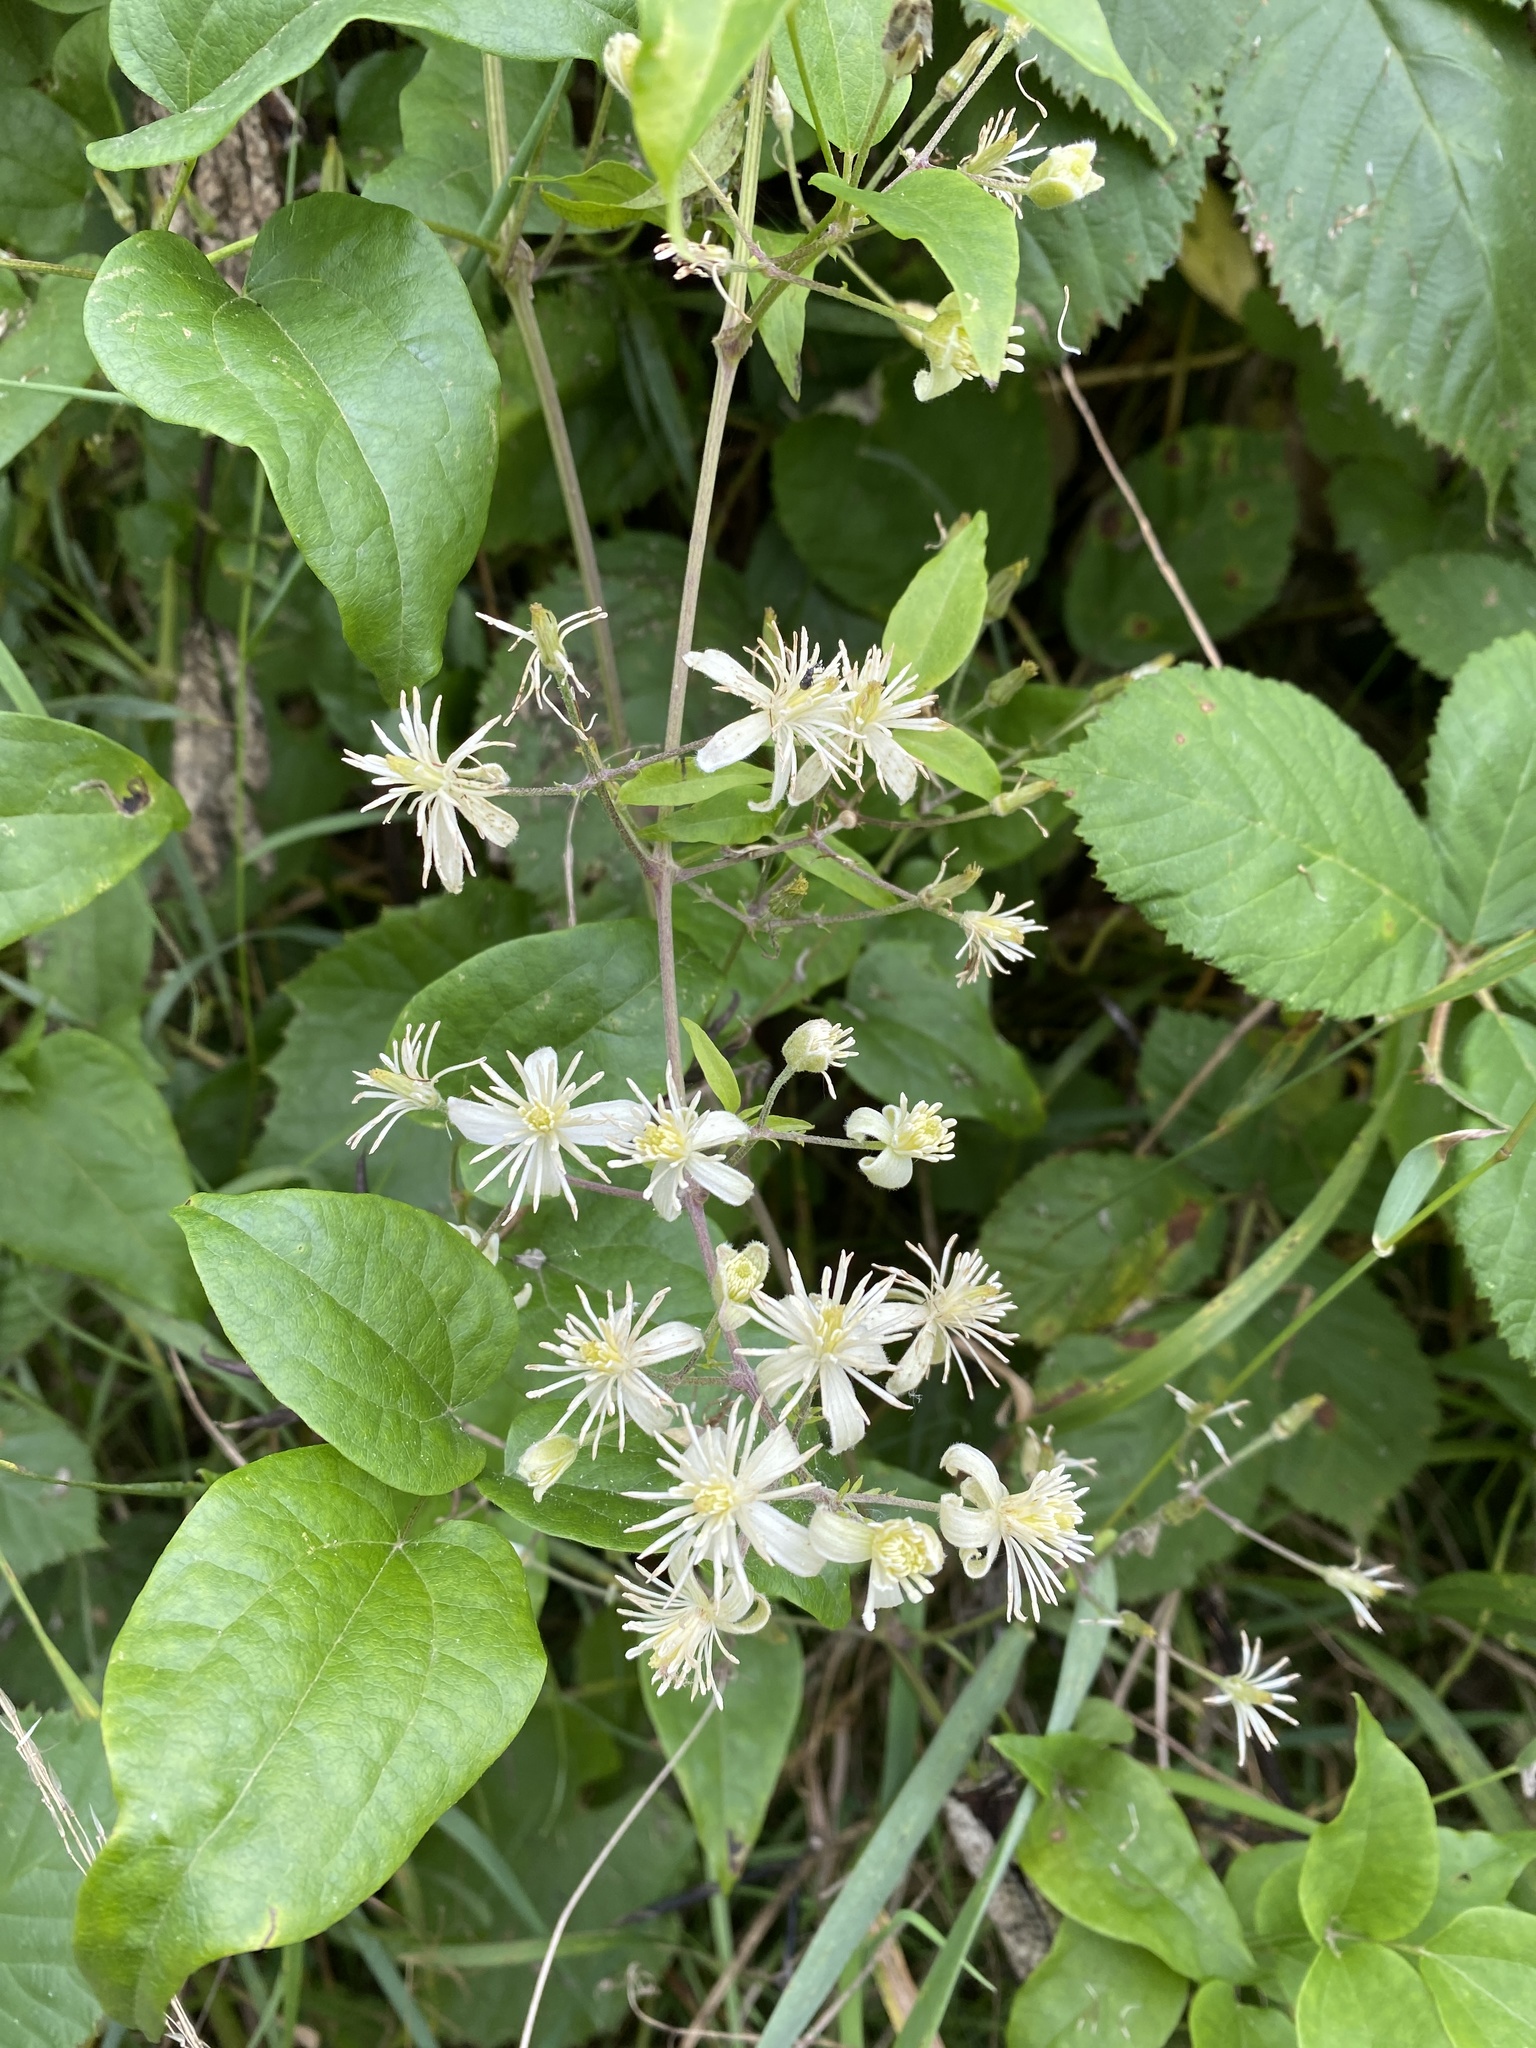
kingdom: Plantae
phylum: Tracheophyta
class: Magnoliopsida
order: Ranunculales
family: Ranunculaceae
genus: Clematis
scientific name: Clematis vitalba
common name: Evergreen clematis
